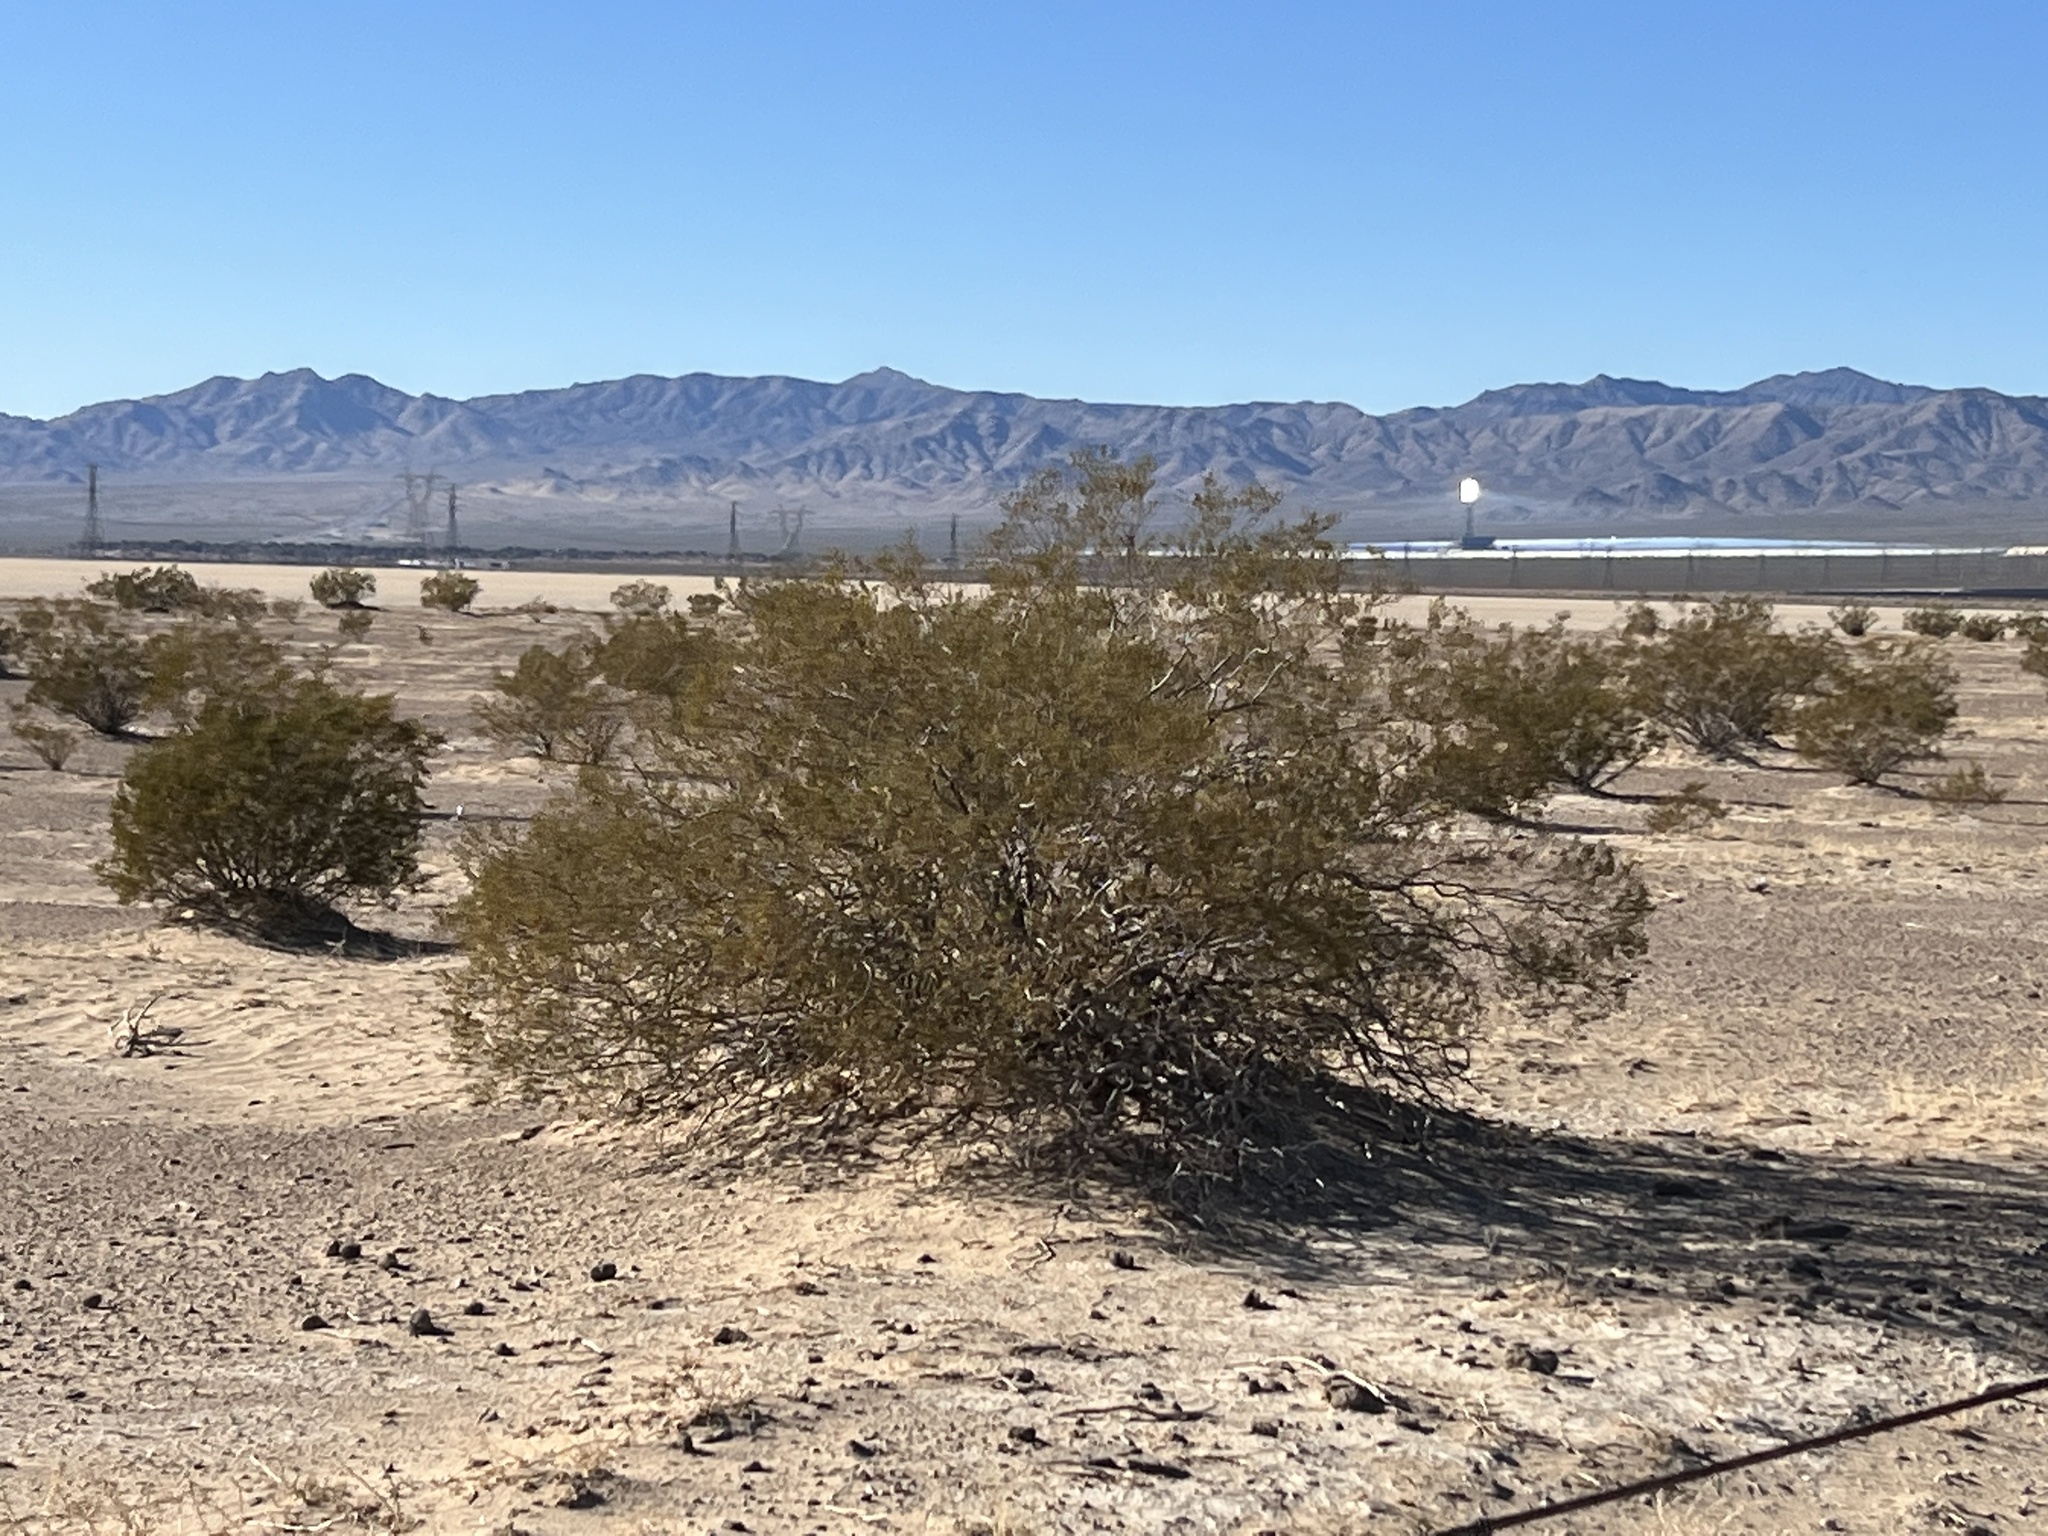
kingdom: Plantae
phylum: Tracheophyta
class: Magnoliopsida
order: Zygophyllales
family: Zygophyllaceae
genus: Larrea
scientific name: Larrea tridentata
